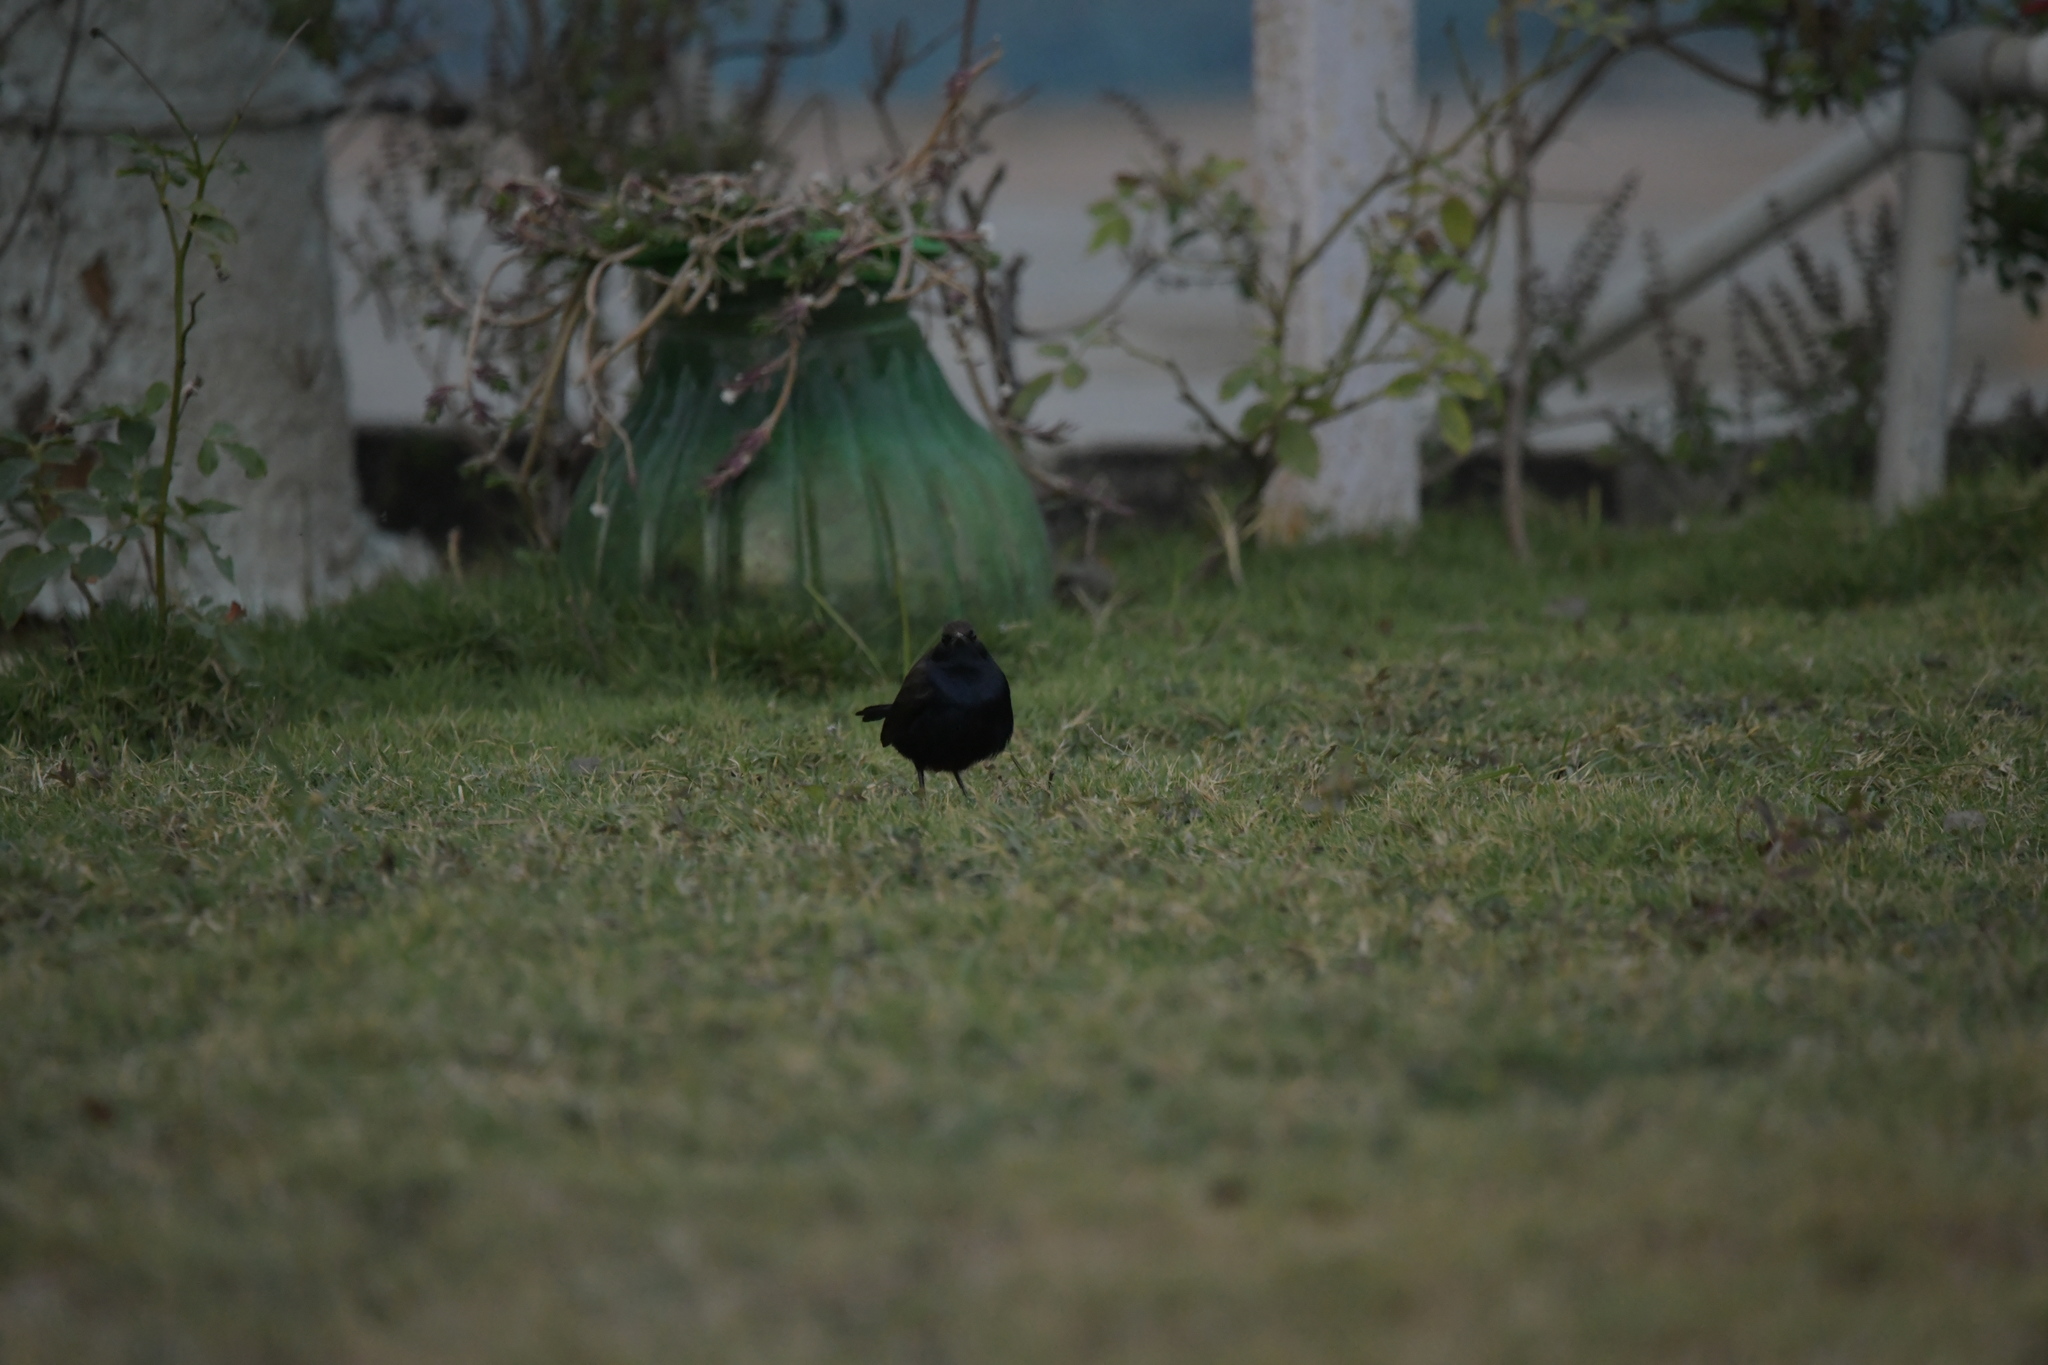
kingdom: Animalia
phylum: Chordata
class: Aves
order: Passeriformes
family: Muscicapidae
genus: Saxicoloides
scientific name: Saxicoloides fulicatus
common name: Indian robin
